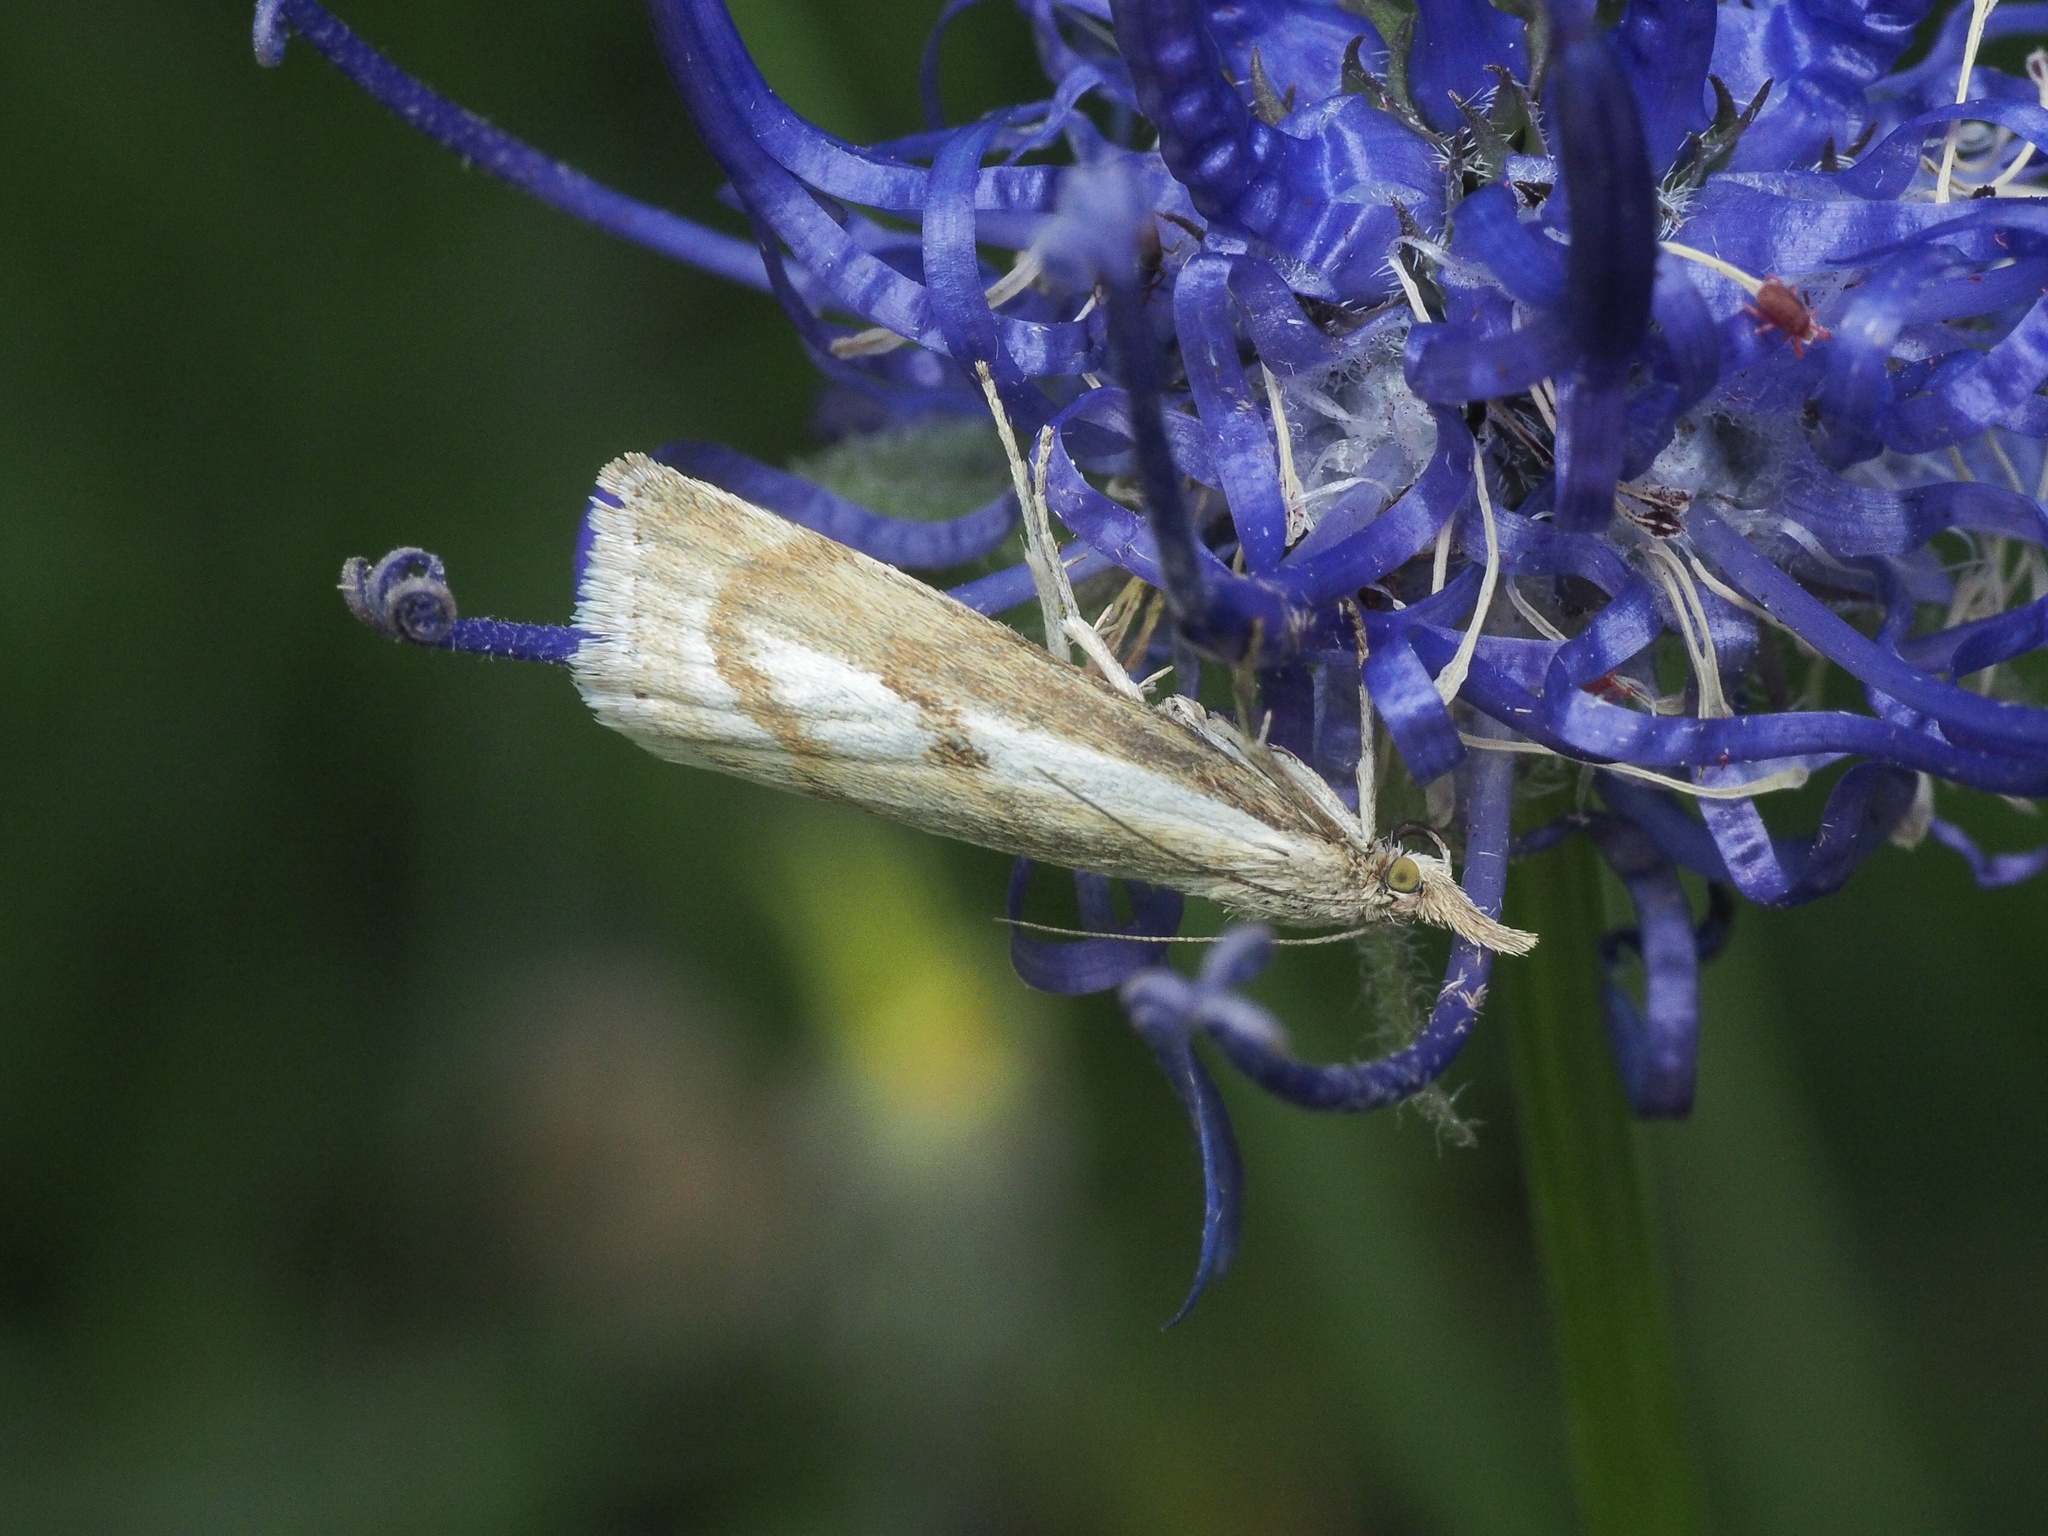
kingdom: Animalia
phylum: Arthropoda
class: Insecta
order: Lepidoptera
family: Crambidae
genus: Catoptria
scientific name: Catoptria petrificella
